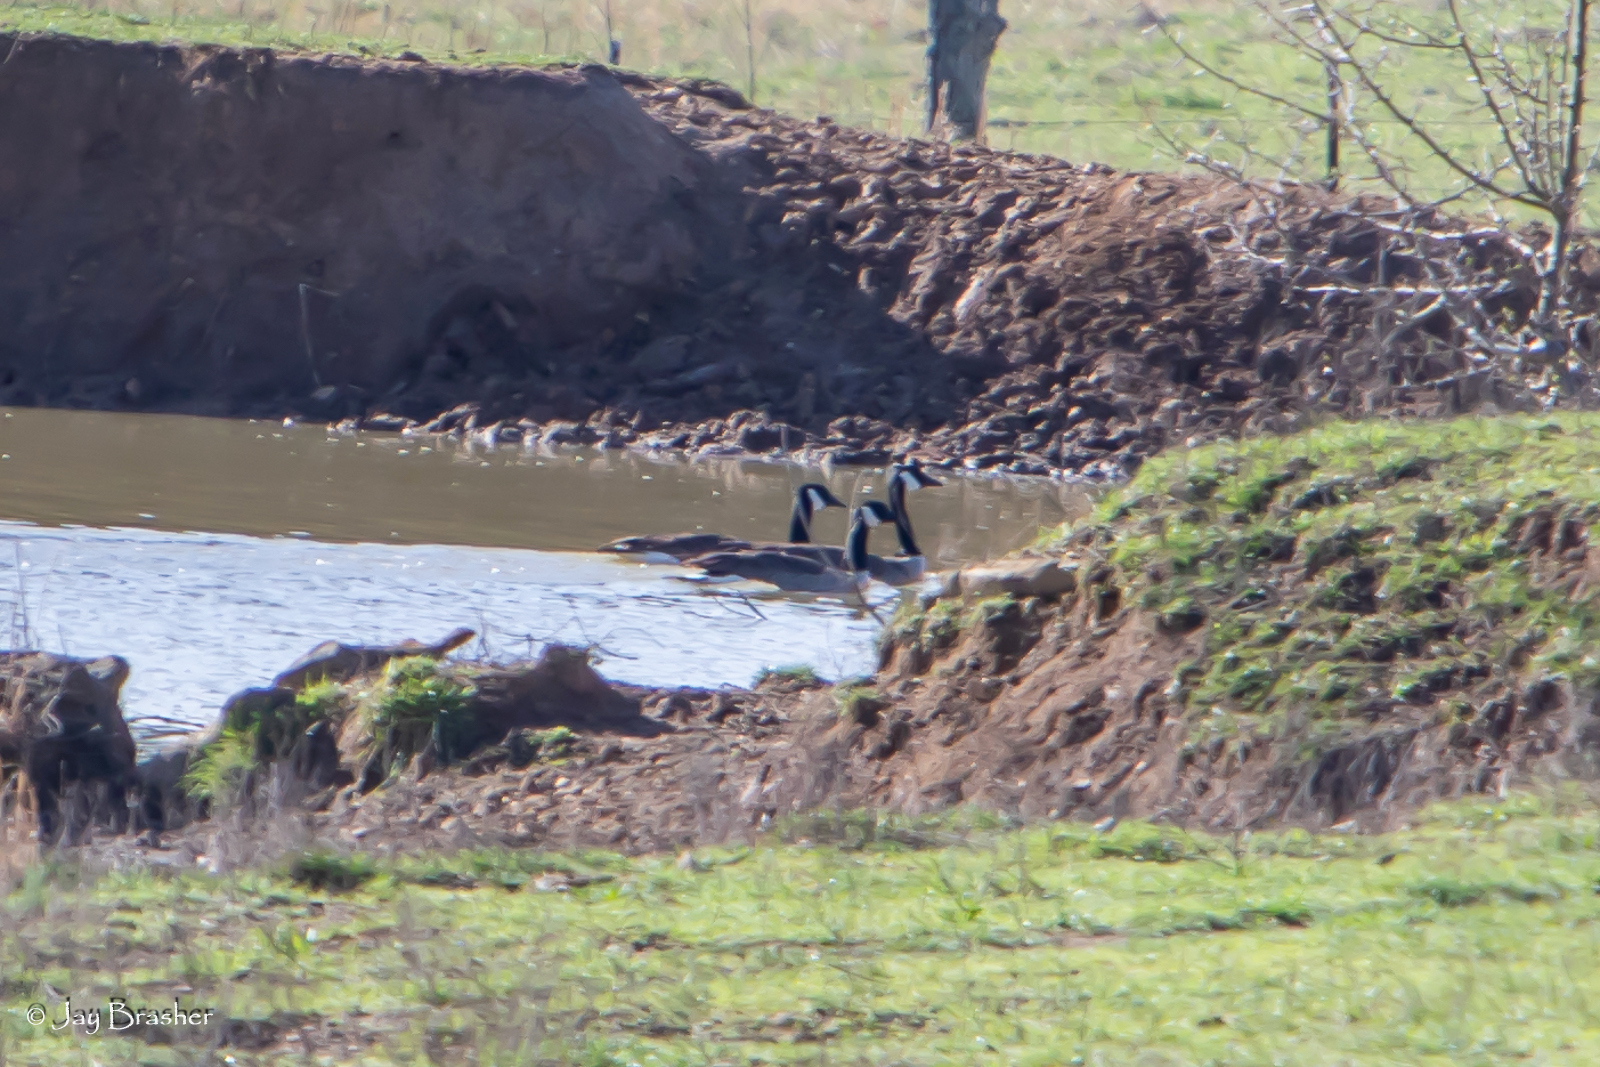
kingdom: Animalia
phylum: Chordata
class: Aves
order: Anseriformes
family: Anatidae
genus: Branta
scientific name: Branta canadensis
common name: Canada goose
